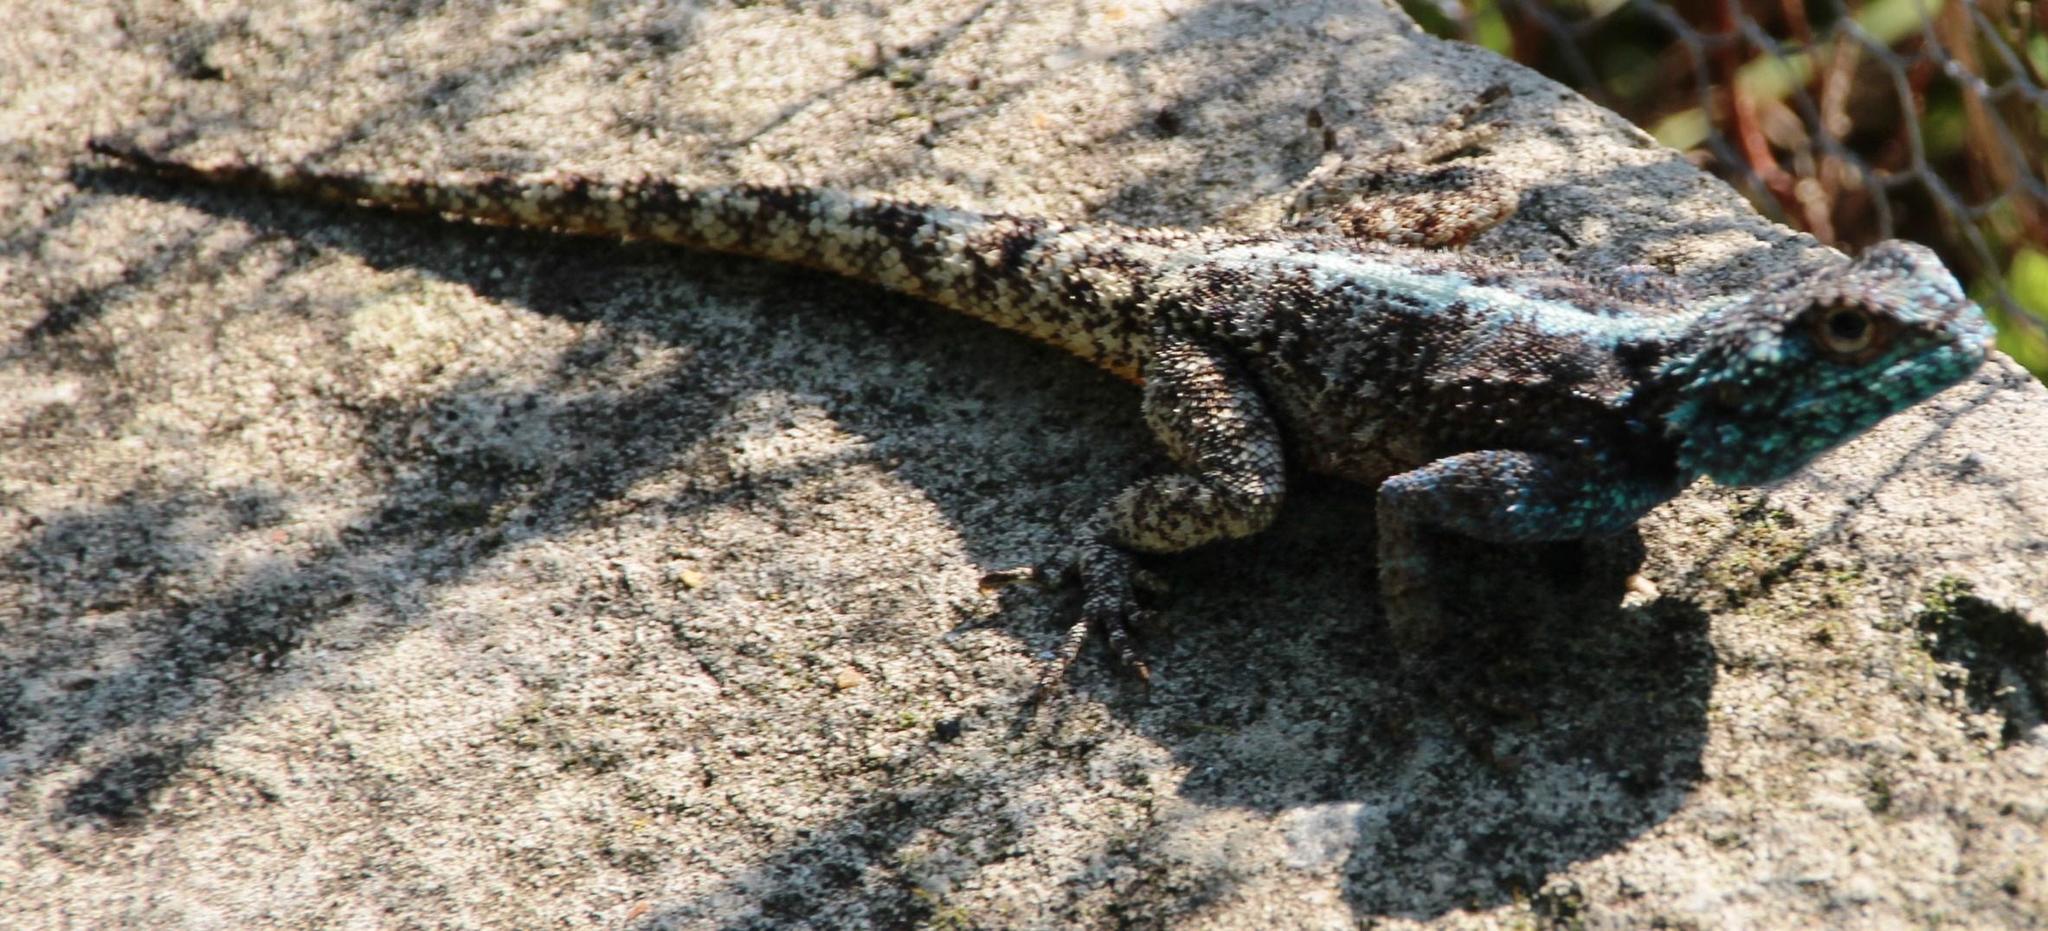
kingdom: Animalia
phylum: Chordata
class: Squamata
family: Agamidae
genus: Agama
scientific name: Agama atra
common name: Southern african rock agama
